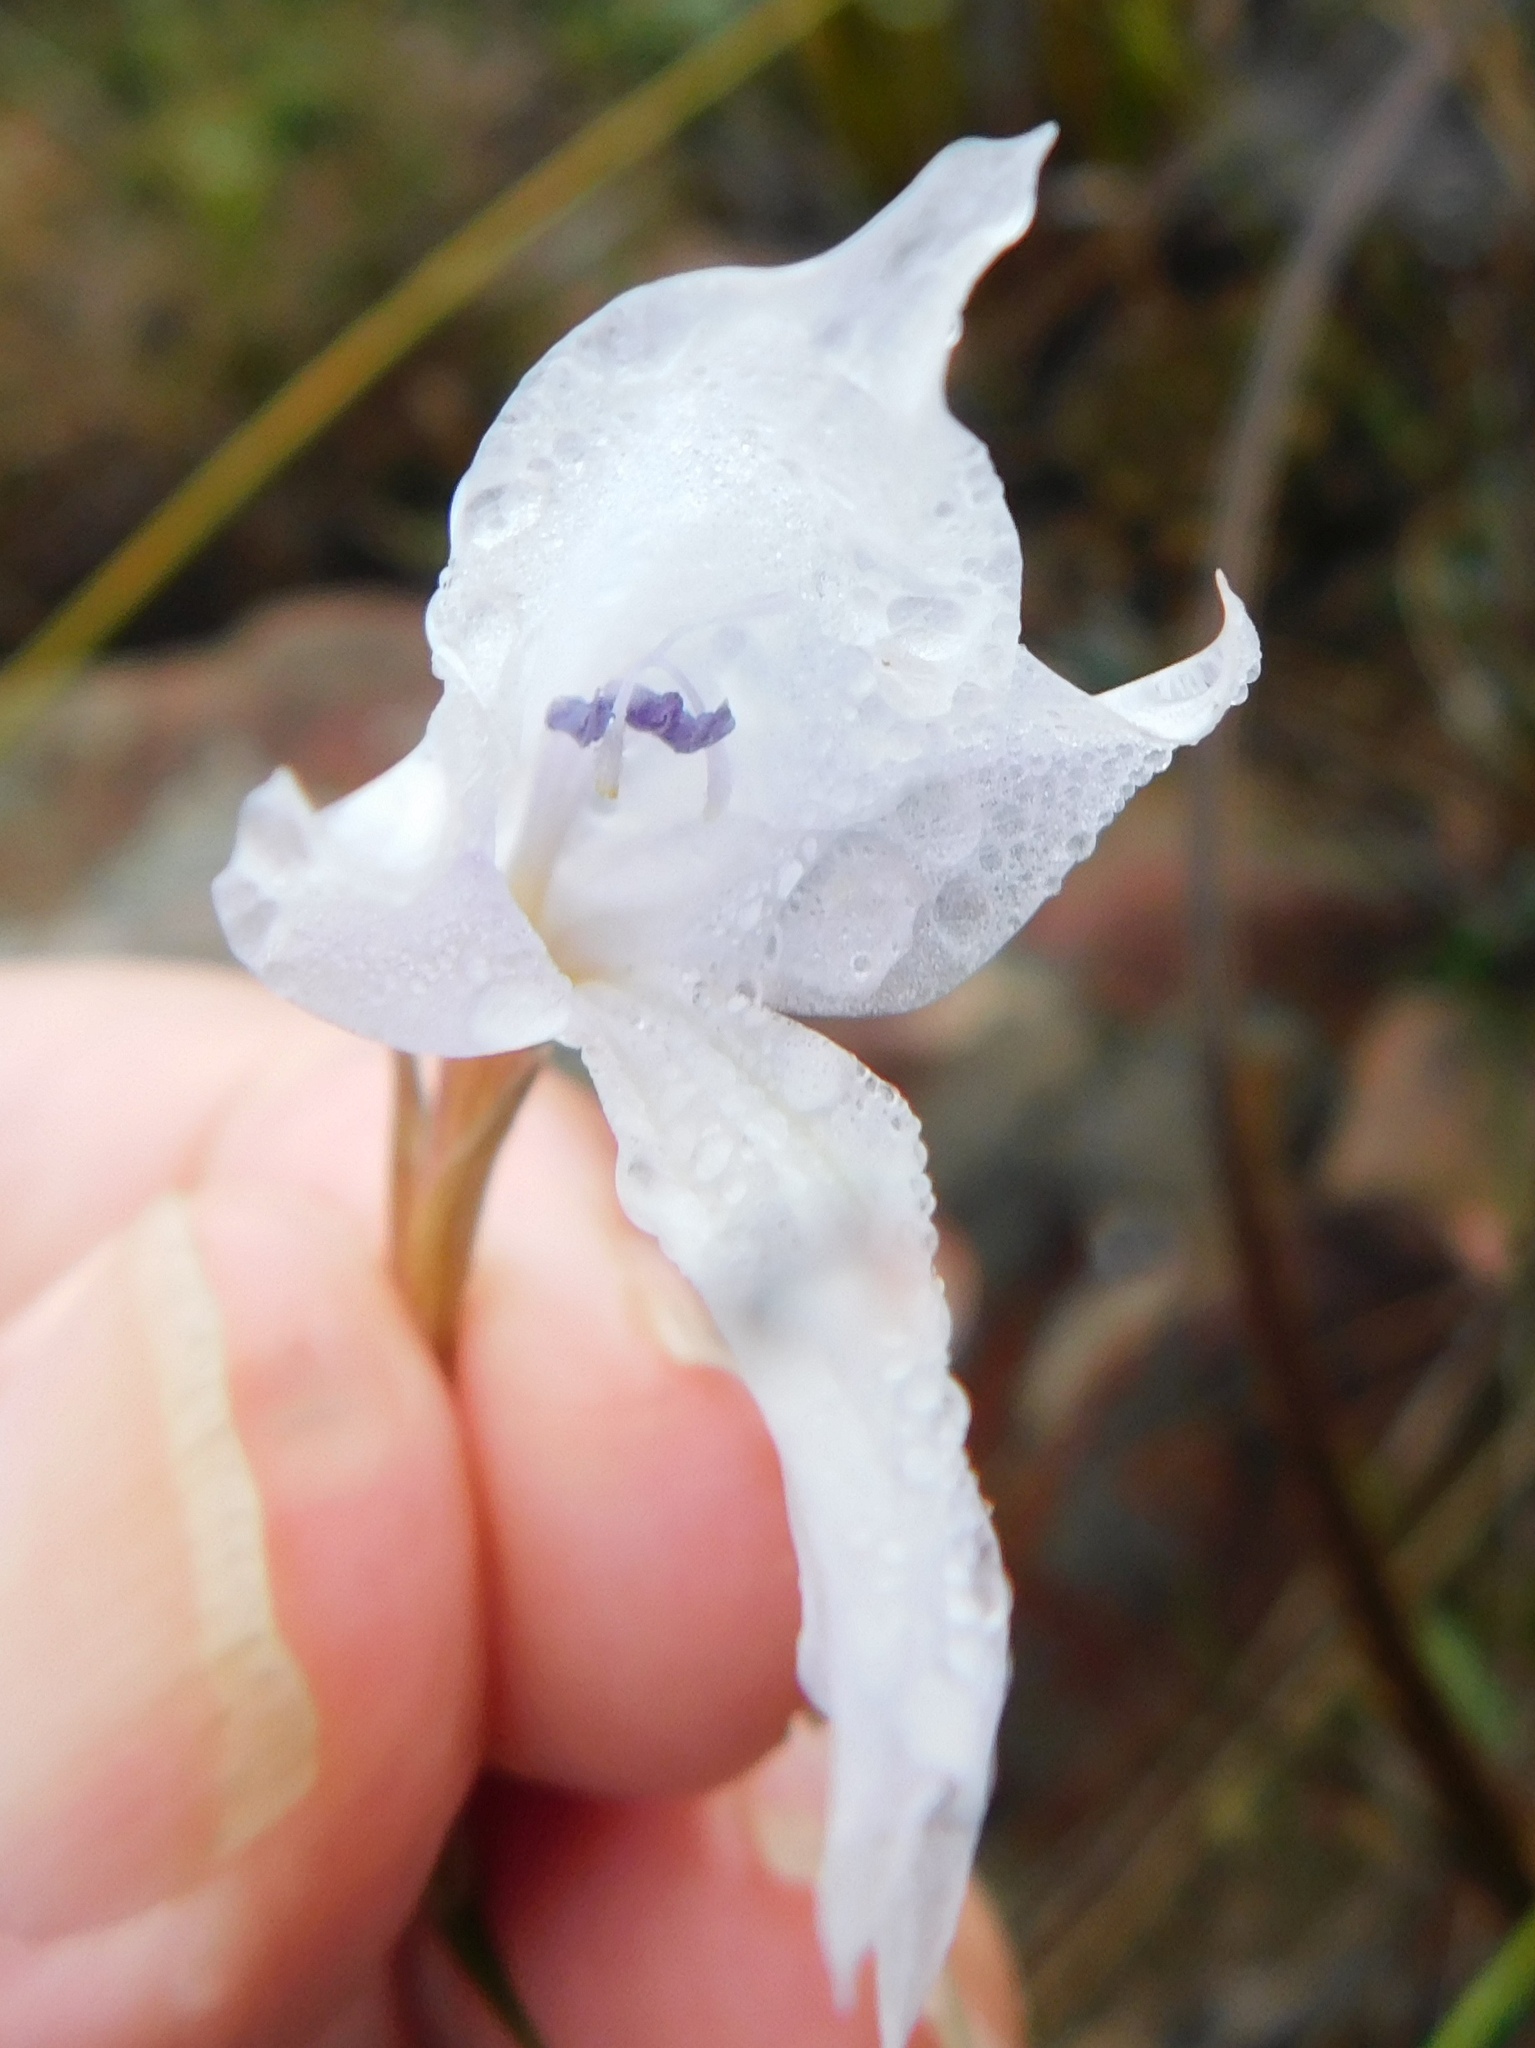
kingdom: Plantae
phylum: Tracheophyta
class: Liliopsida
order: Asparagales
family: Iridaceae
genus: Gladiolus
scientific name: Gladiolus vaginatus
